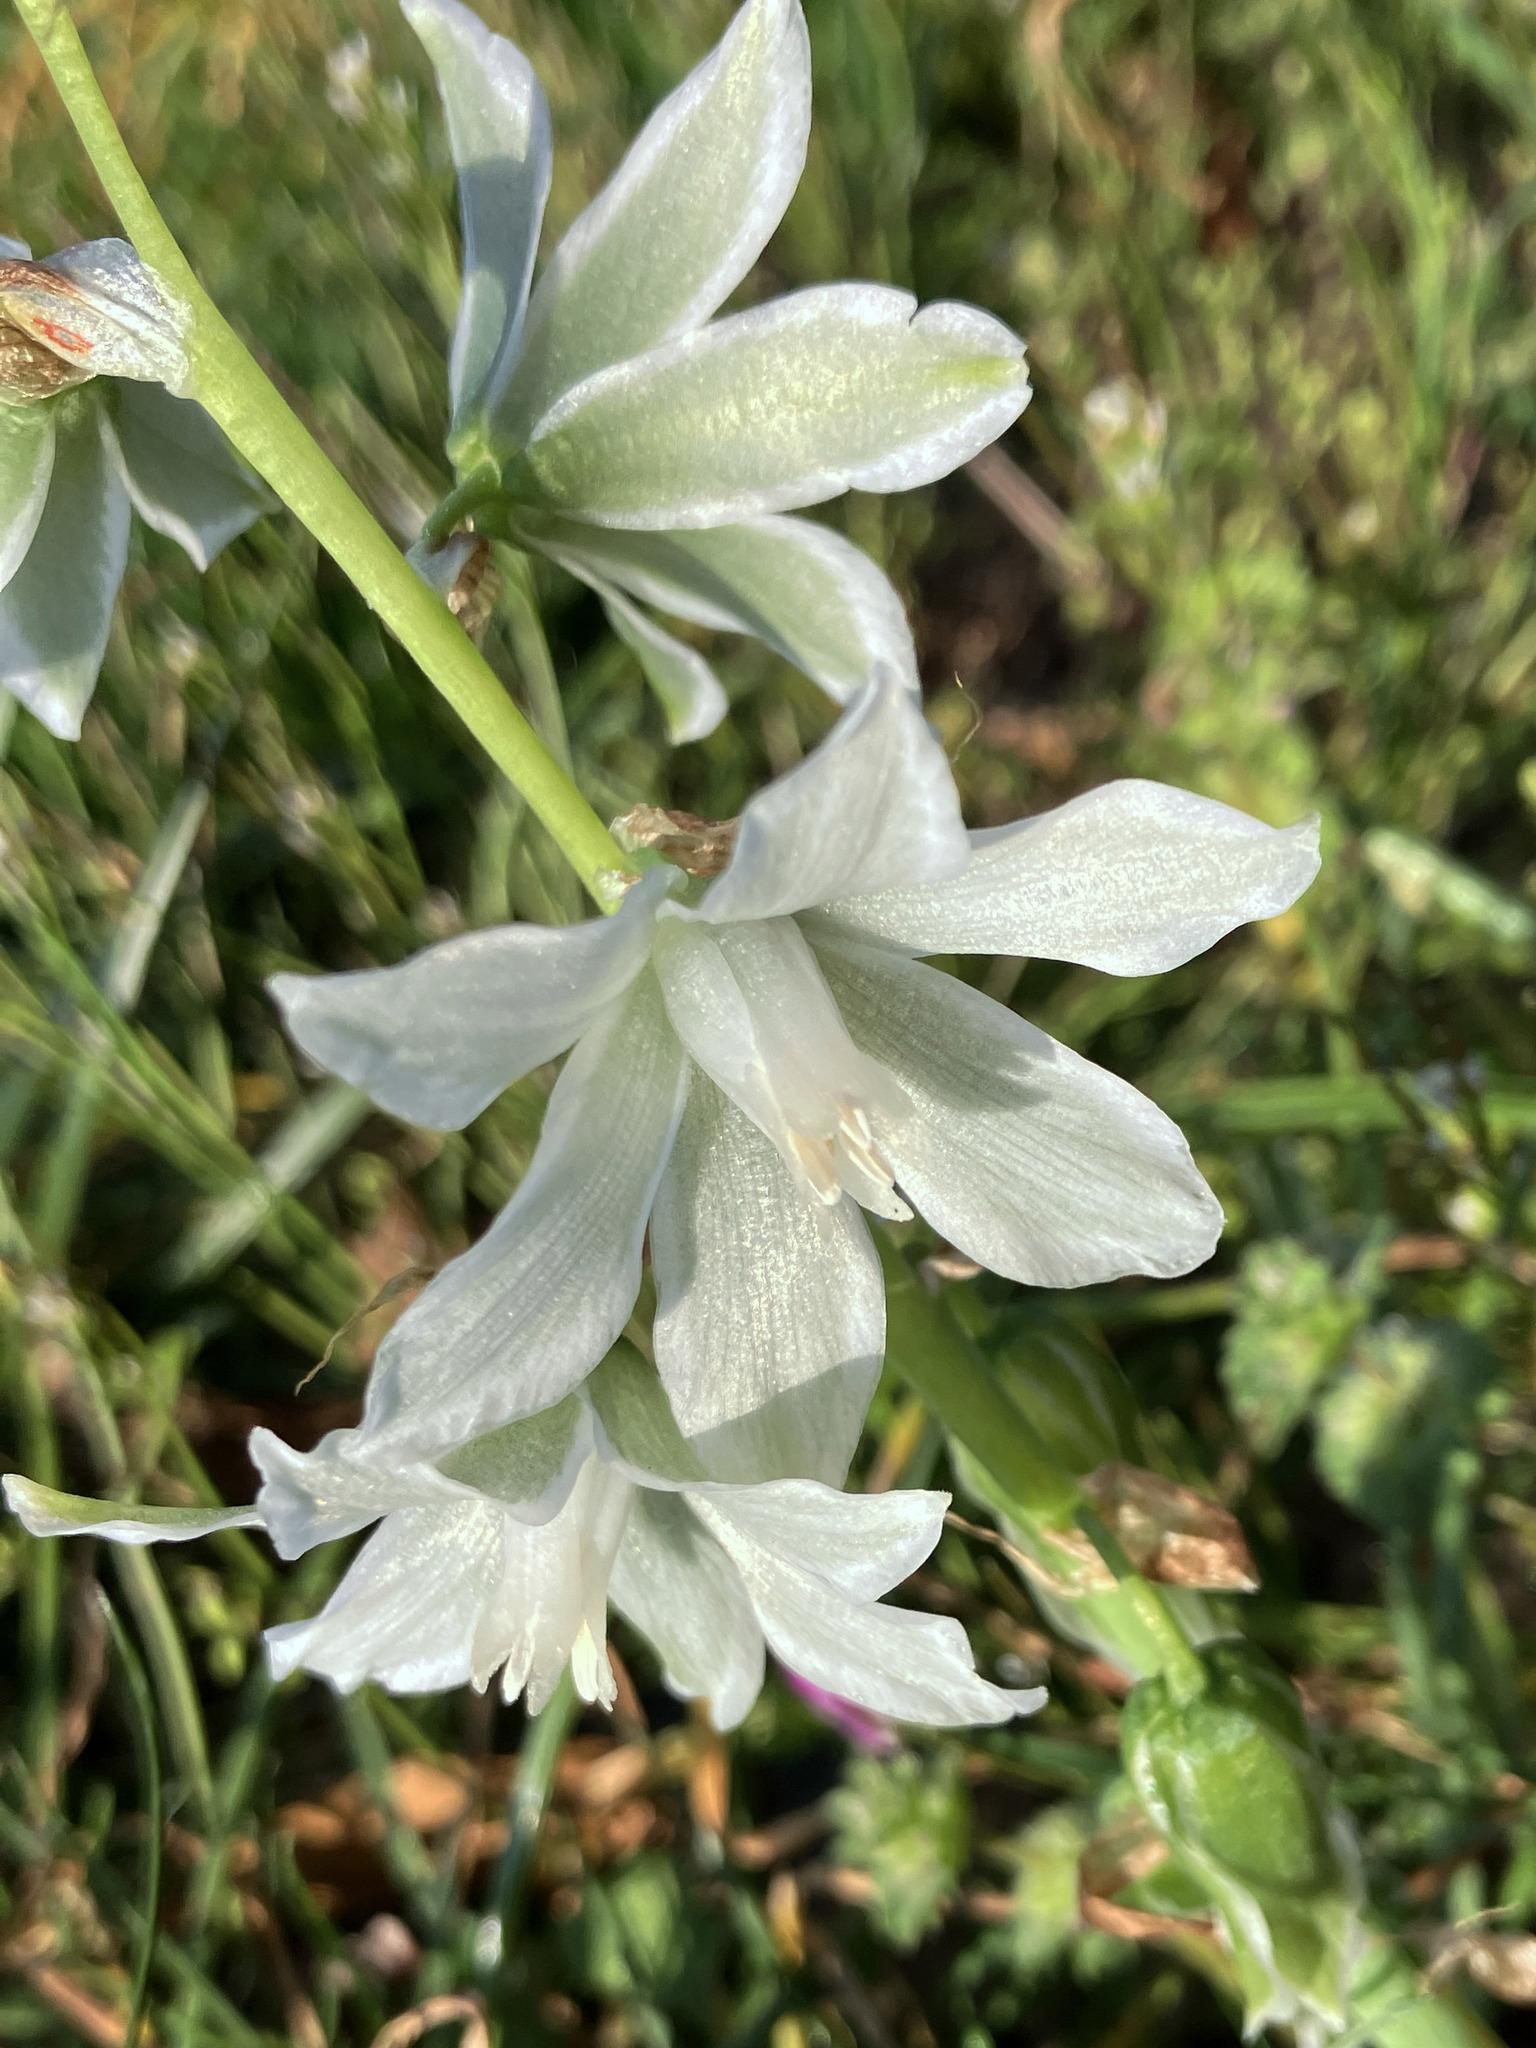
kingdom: Plantae
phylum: Tracheophyta
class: Liliopsida
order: Asparagales
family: Asparagaceae
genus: Ornithogalum
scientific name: Ornithogalum nutans
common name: Drooping star-of-bethlehem
